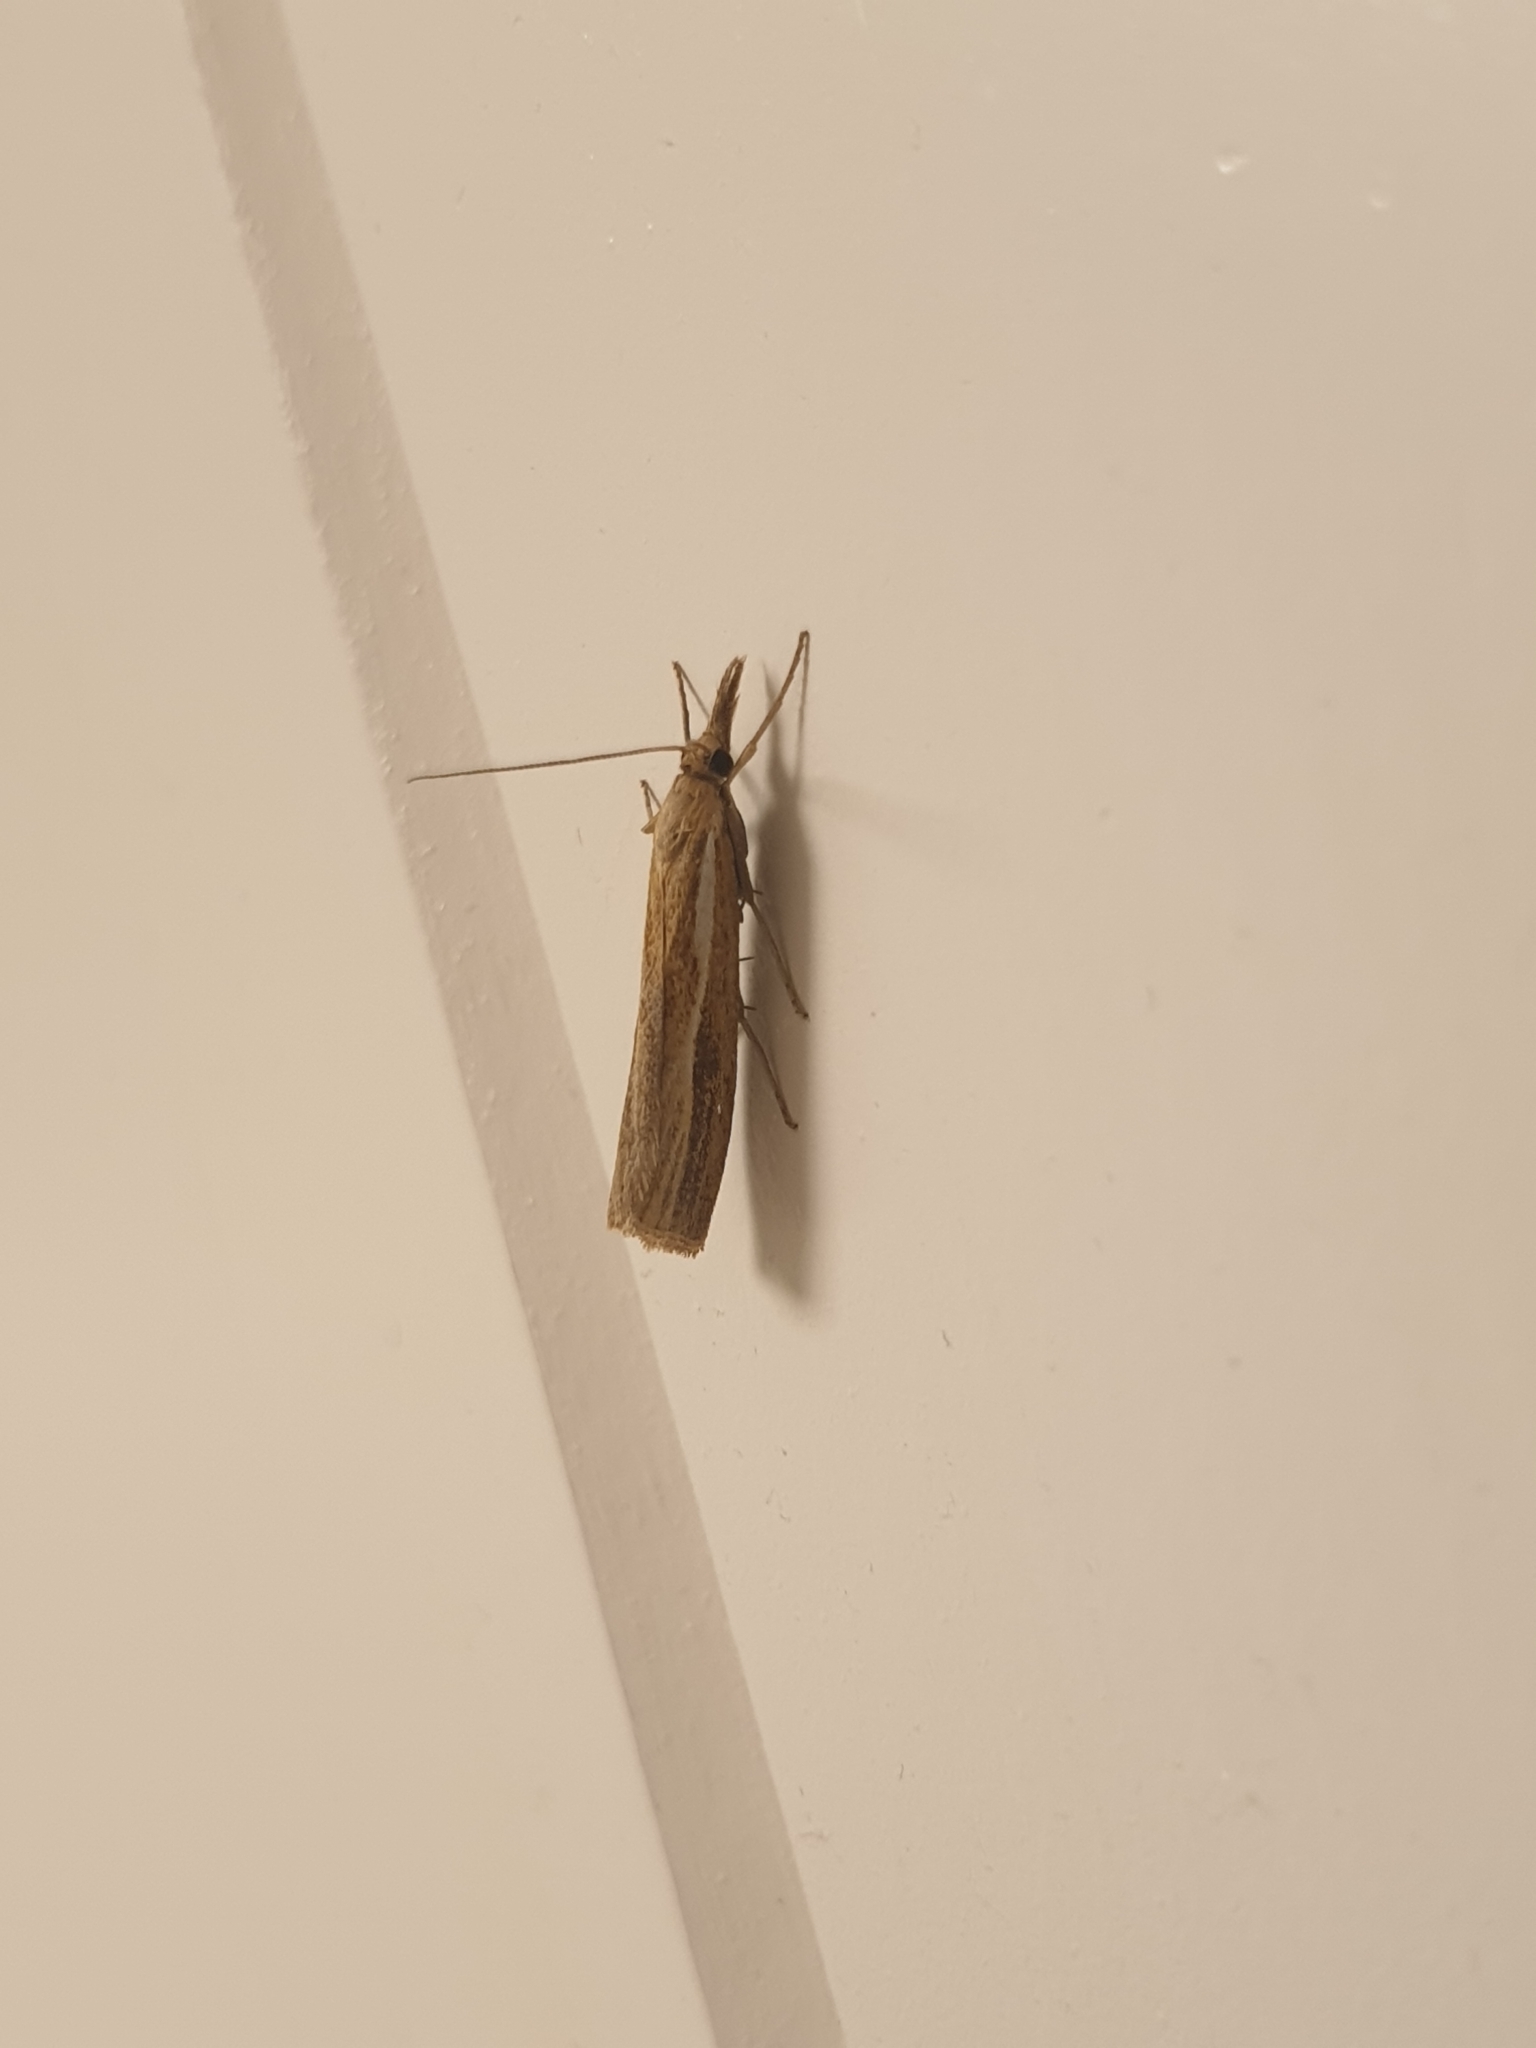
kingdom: Animalia
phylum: Arthropoda
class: Insecta
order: Lepidoptera
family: Crambidae
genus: Agriphila
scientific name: Agriphila tristellus
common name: Common grass-veneer
